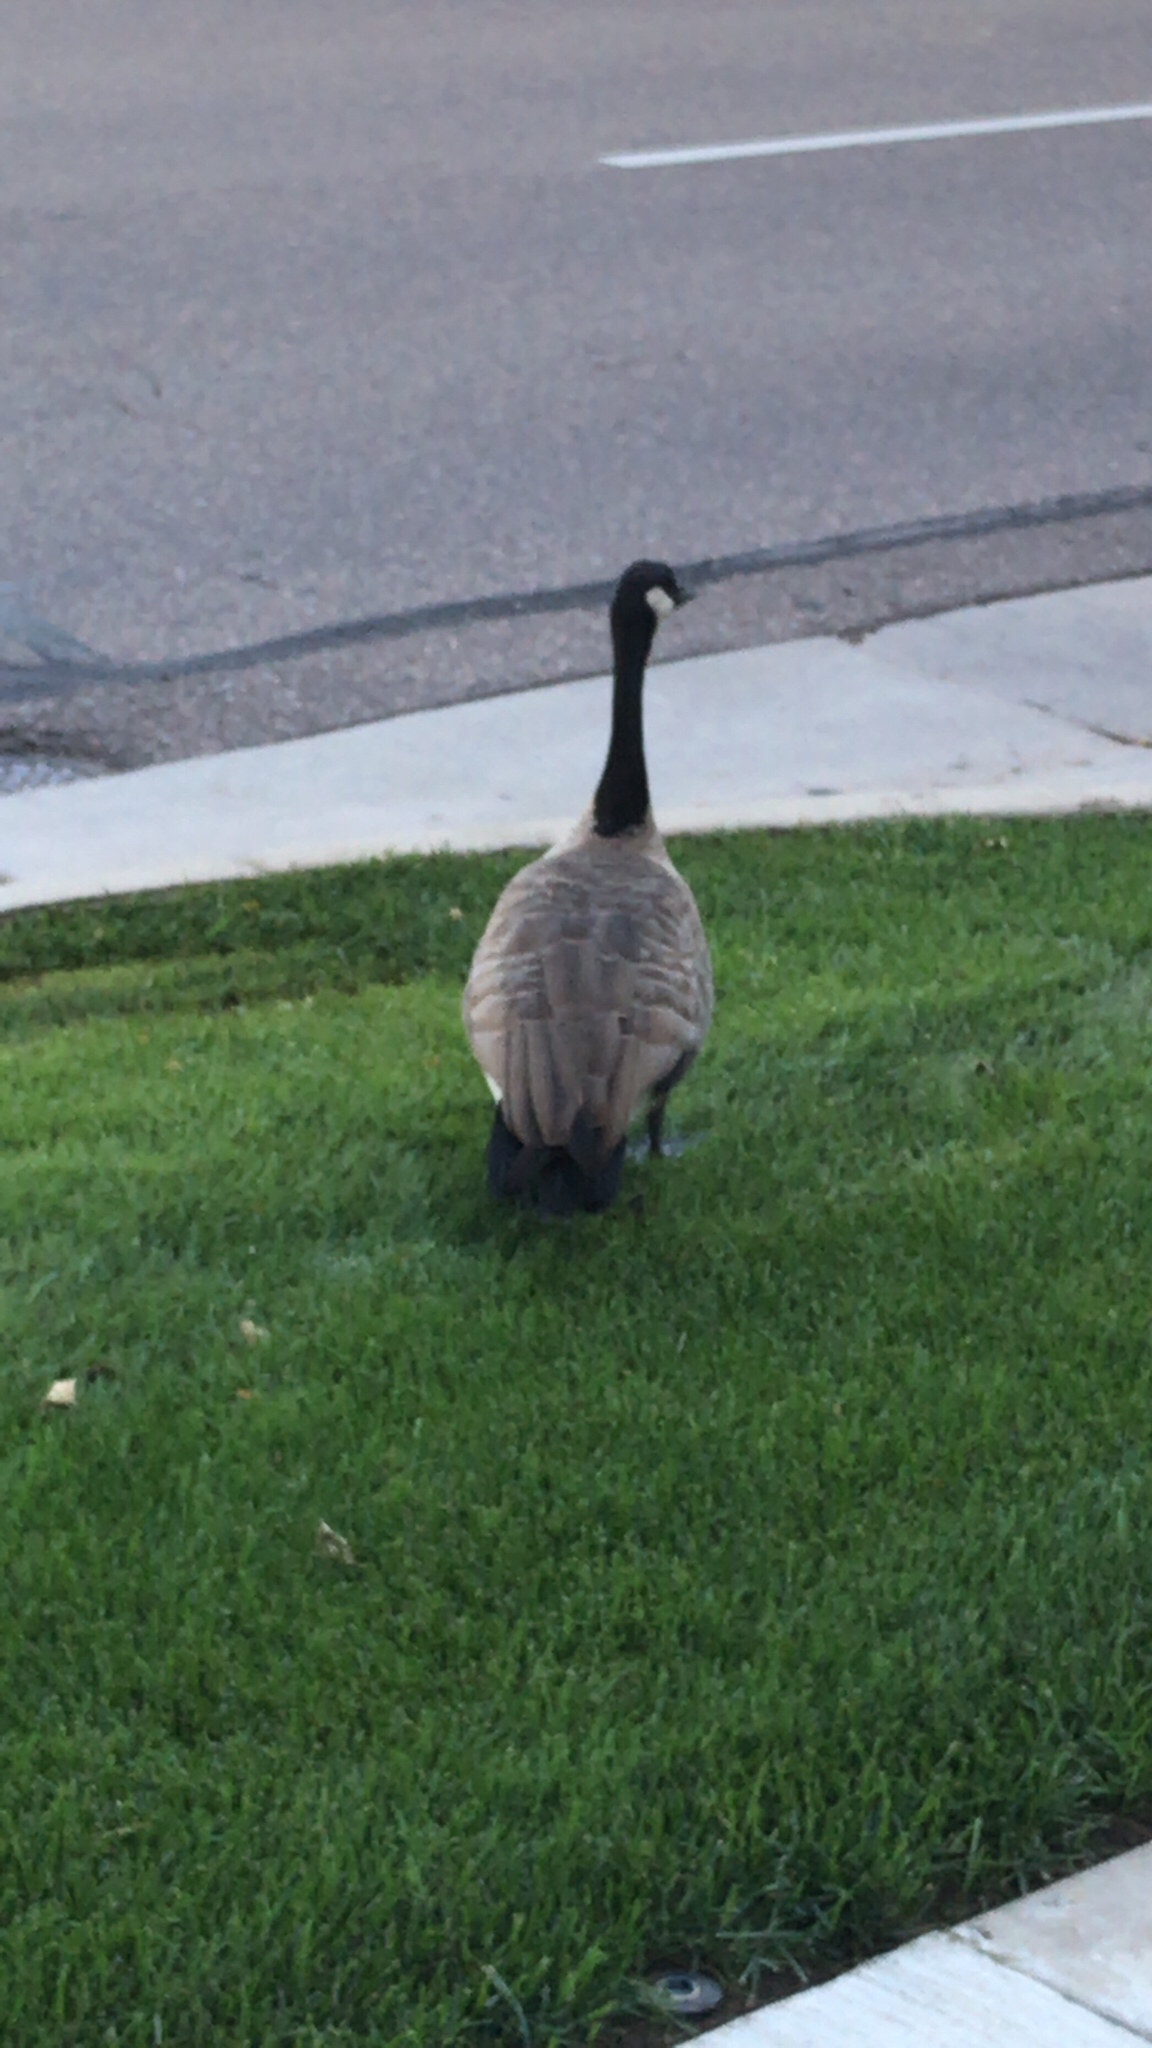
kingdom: Animalia
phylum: Chordata
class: Aves
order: Anseriformes
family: Anatidae
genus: Branta
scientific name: Branta canadensis
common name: Canada goose
